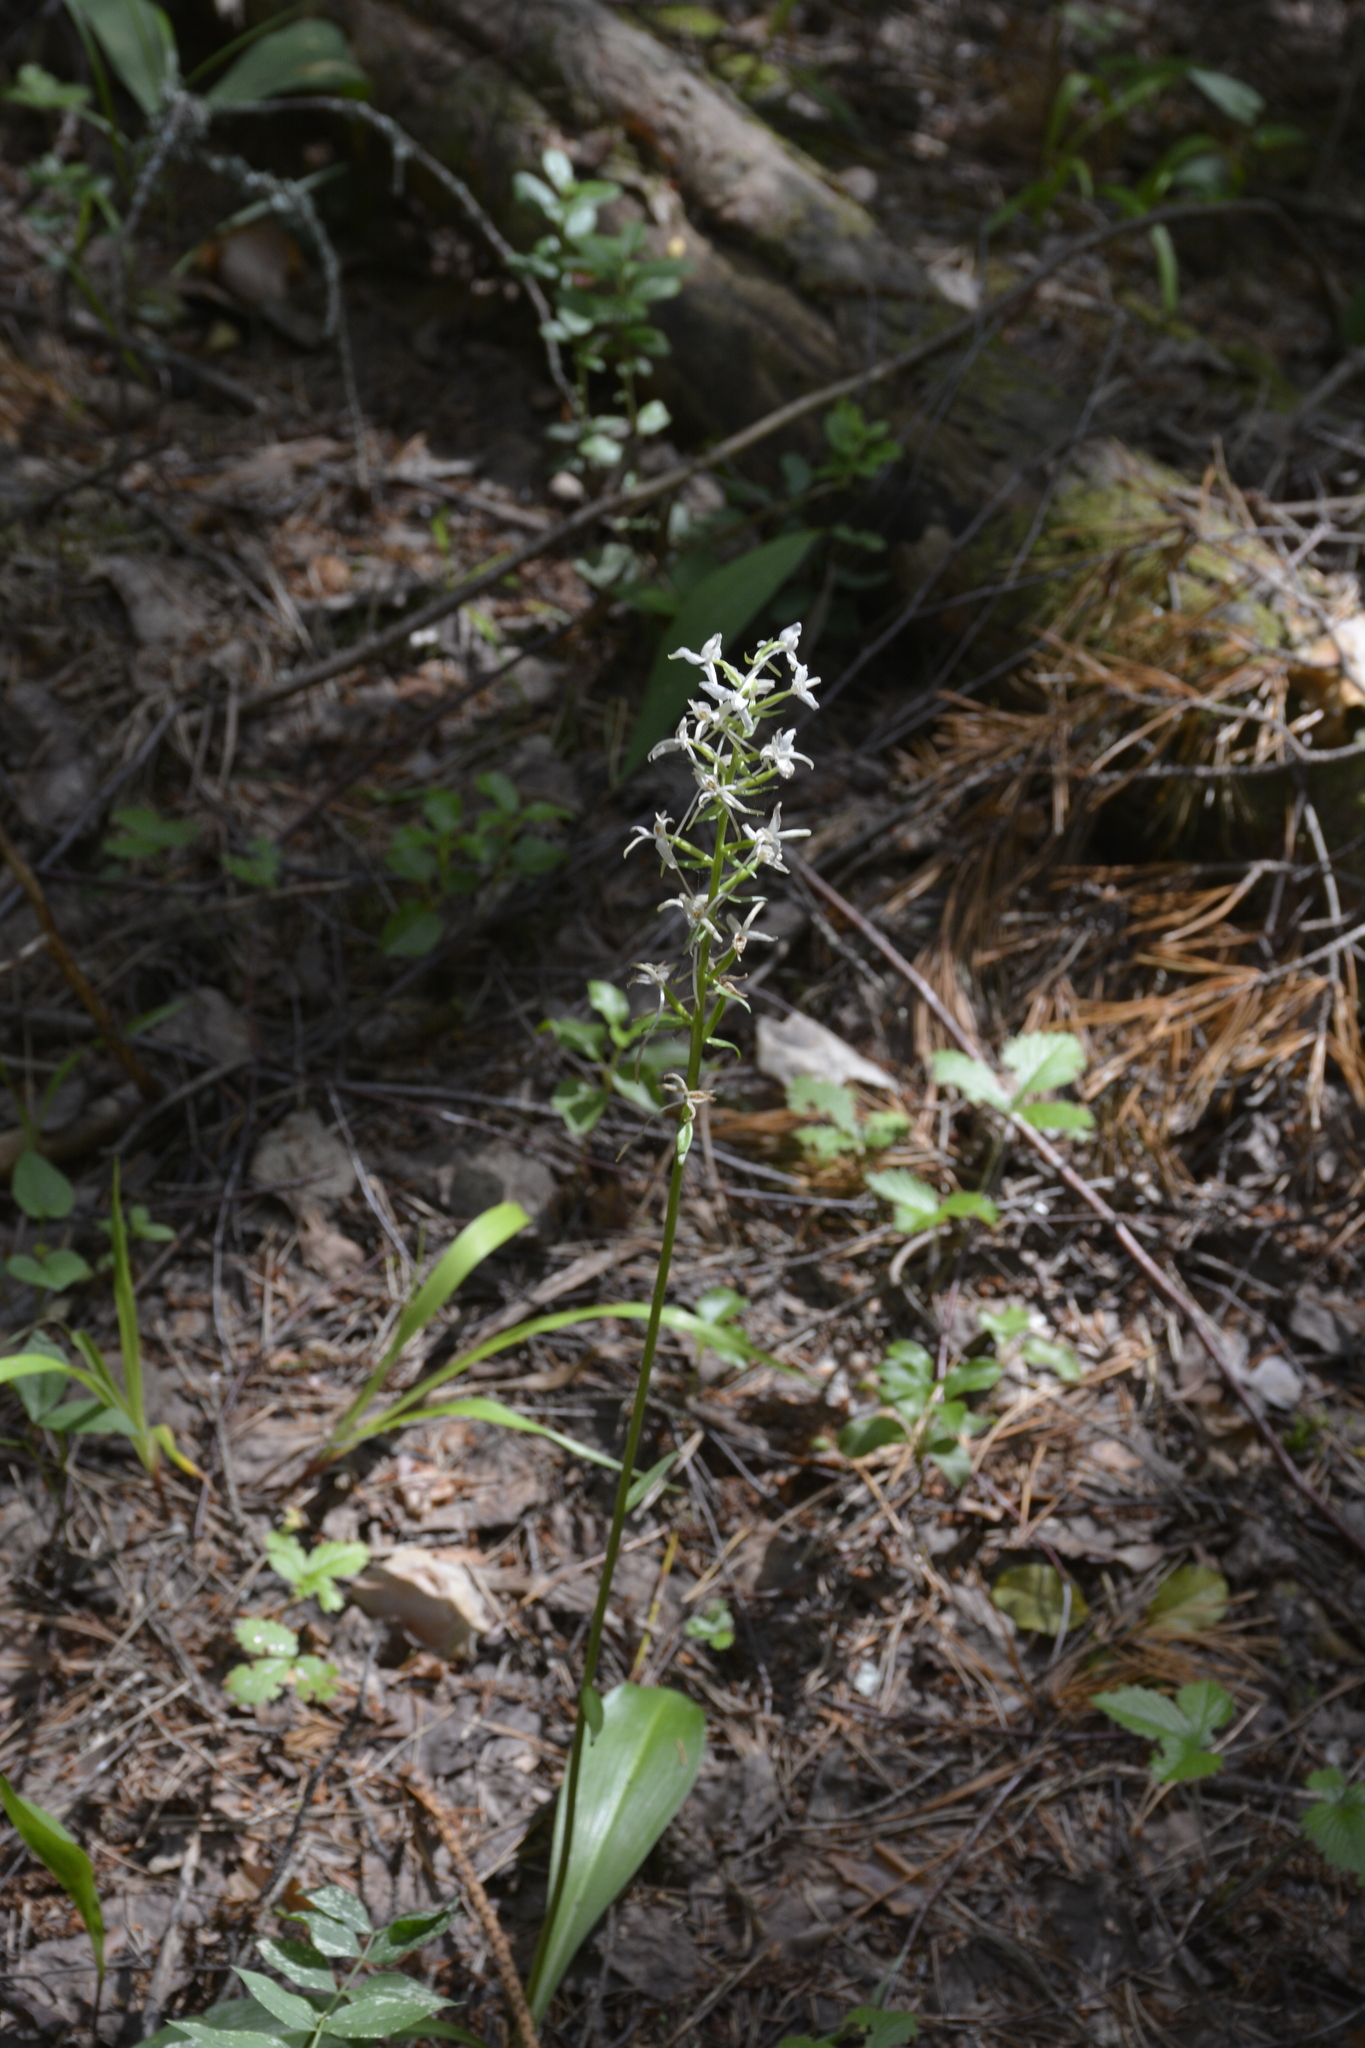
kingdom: Plantae
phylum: Tracheophyta
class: Liliopsida
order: Asparagales
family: Orchidaceae
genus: Platanthera
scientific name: Platanthera bifolia
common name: Lesser butterfly-orchid
